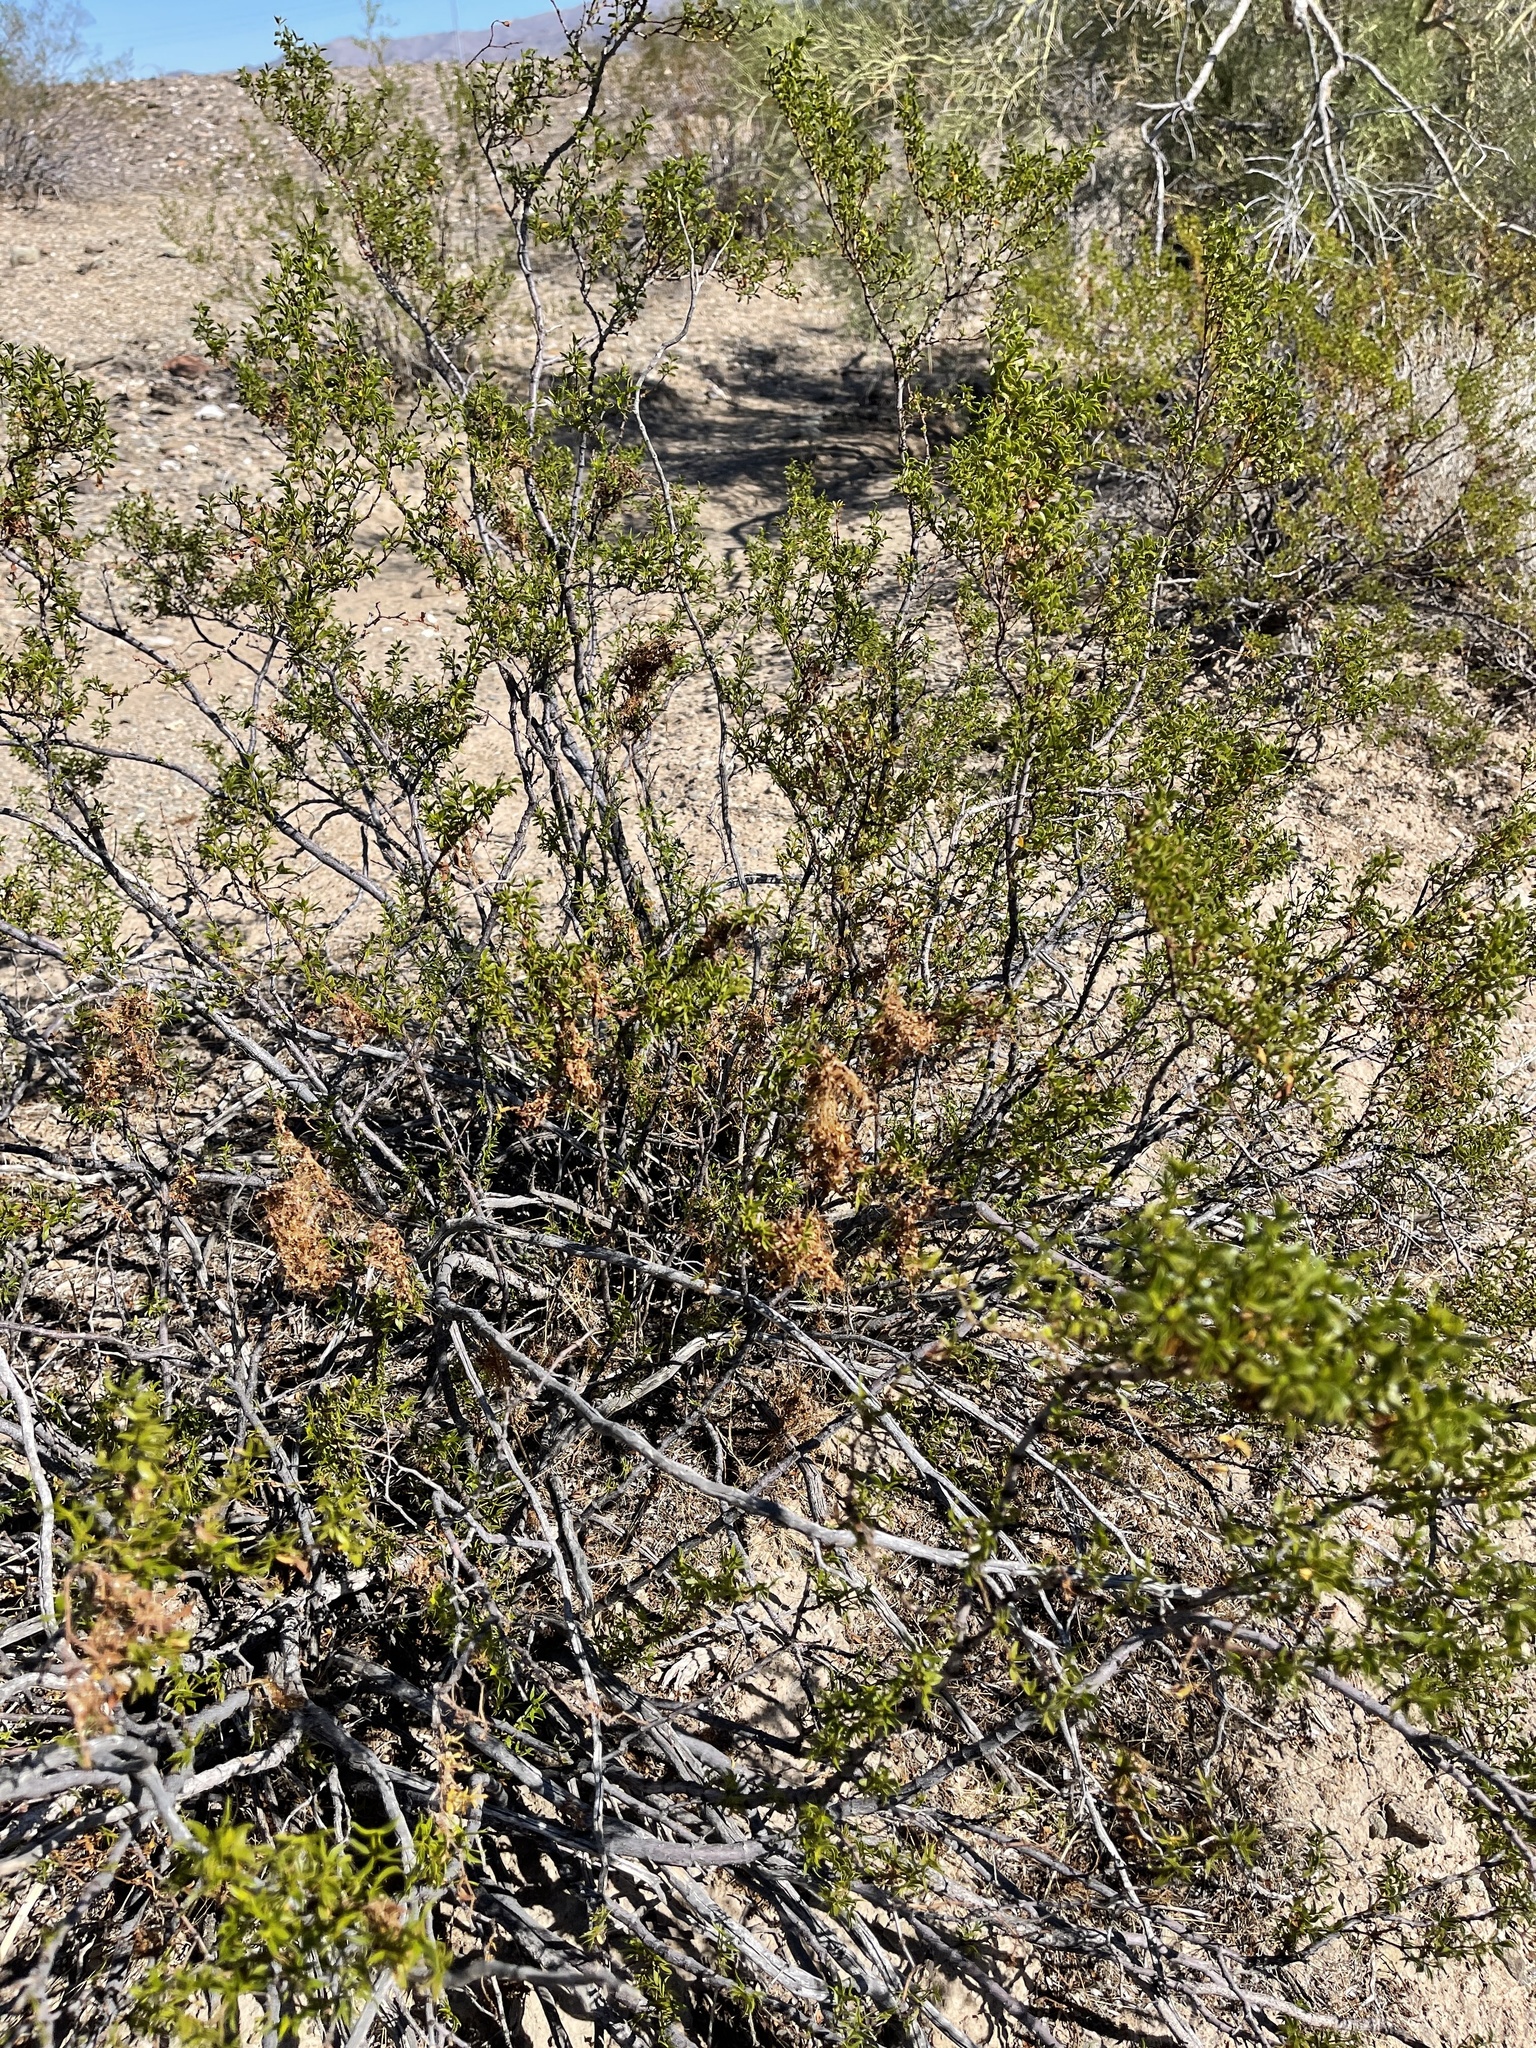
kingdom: Plantae
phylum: Tracheophyta
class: Magnoliopsida
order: Solanales
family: Convolvulaceae
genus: Cuscuta
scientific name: Cuscuta denticulata
